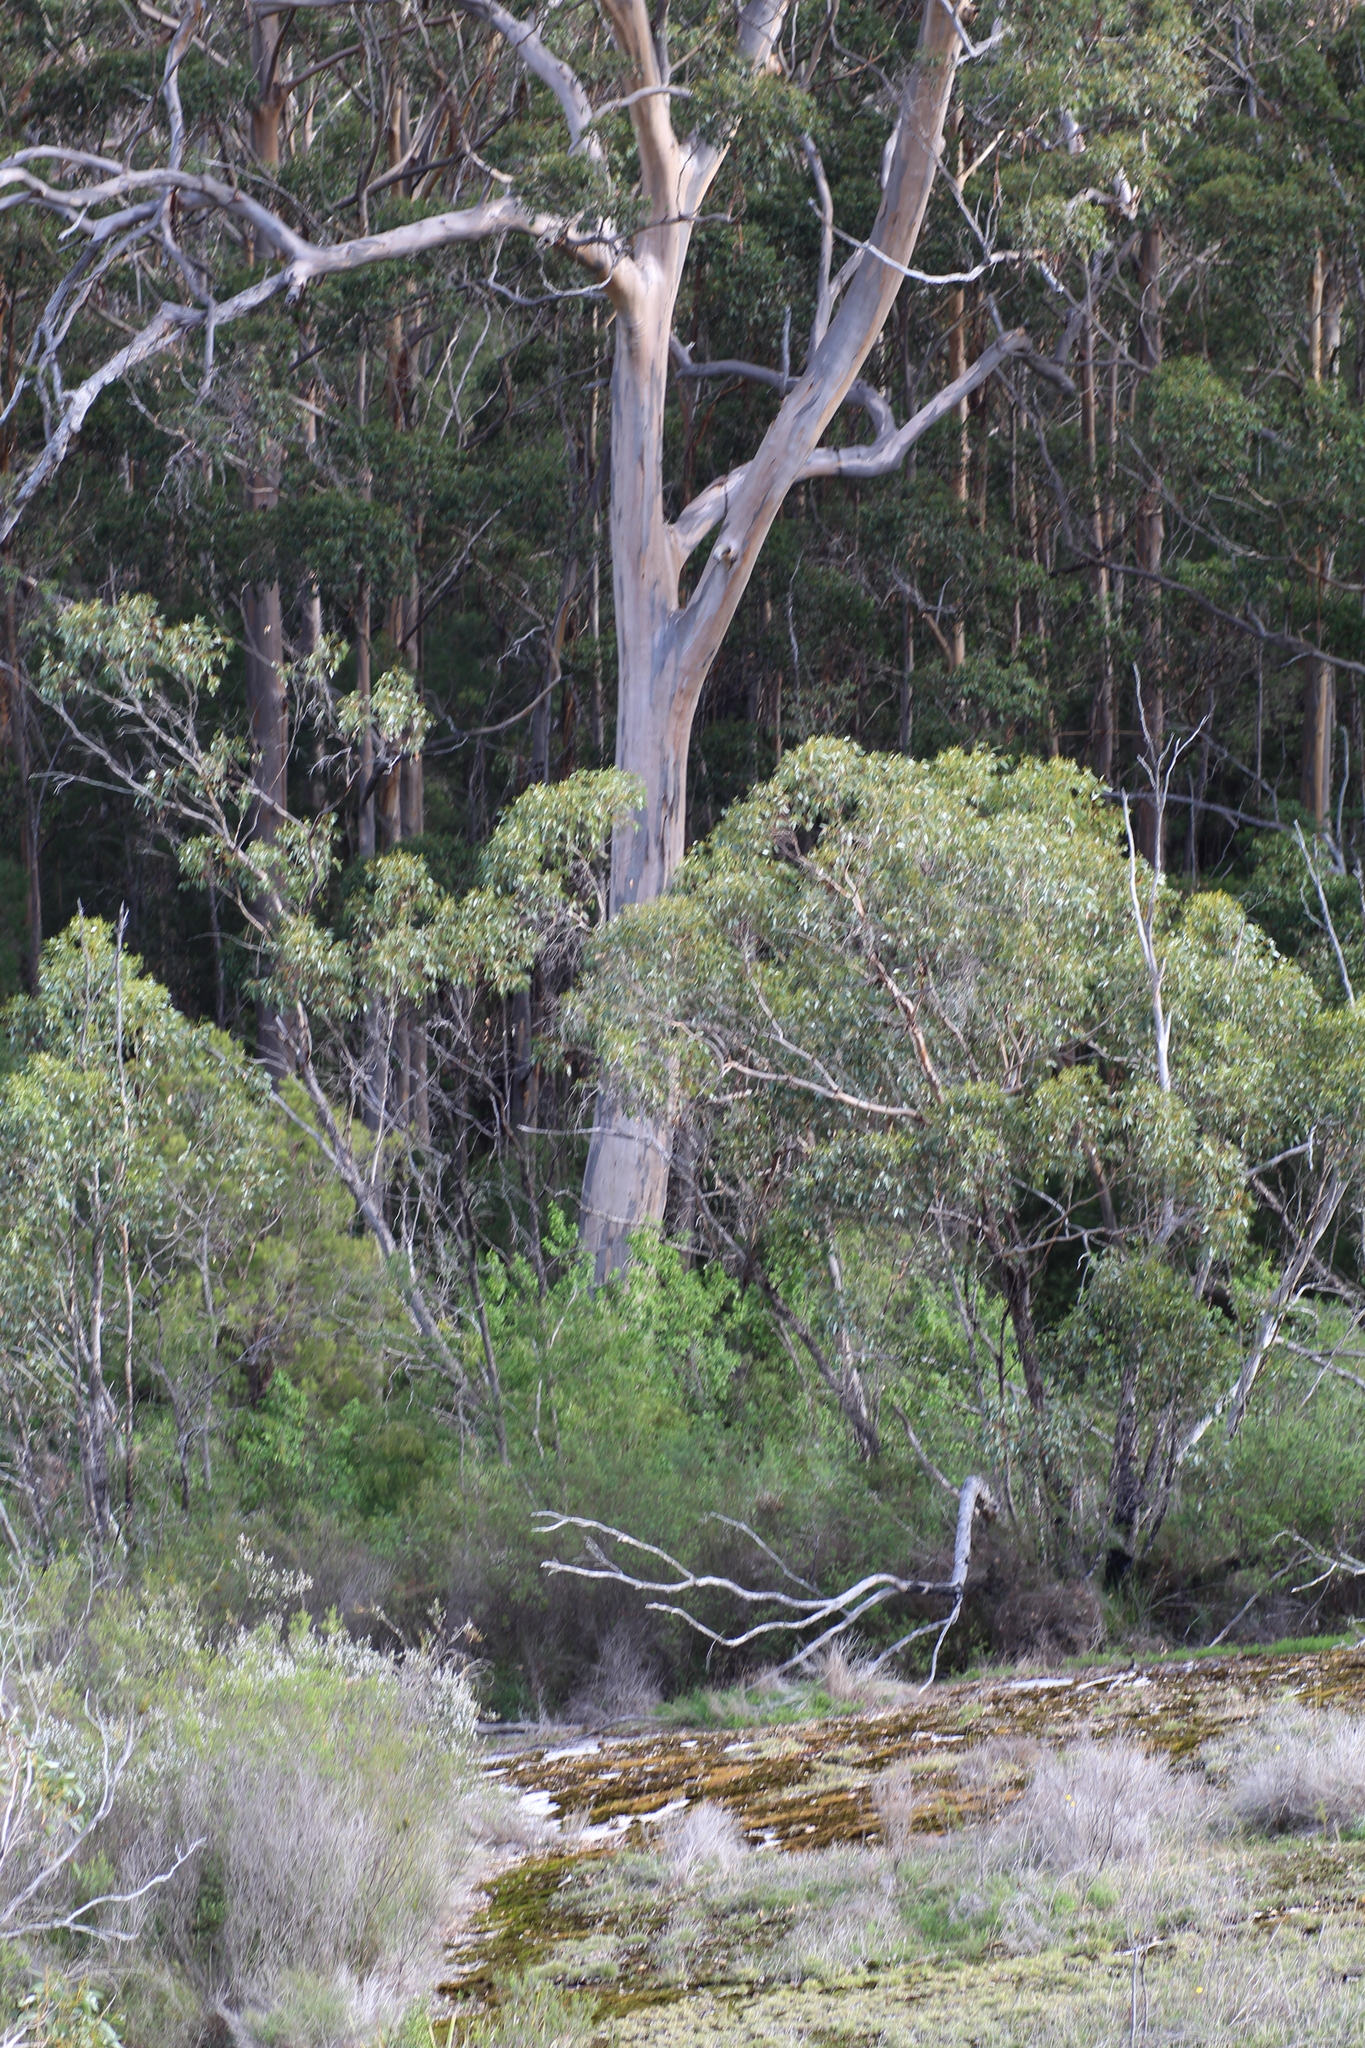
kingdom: Plantae
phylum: Tracheophyta
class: Magnoliopsida
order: Myrtales
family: Myrtaceae
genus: Eucalyptus
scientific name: Eucalyptus diversicolor
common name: Karri
